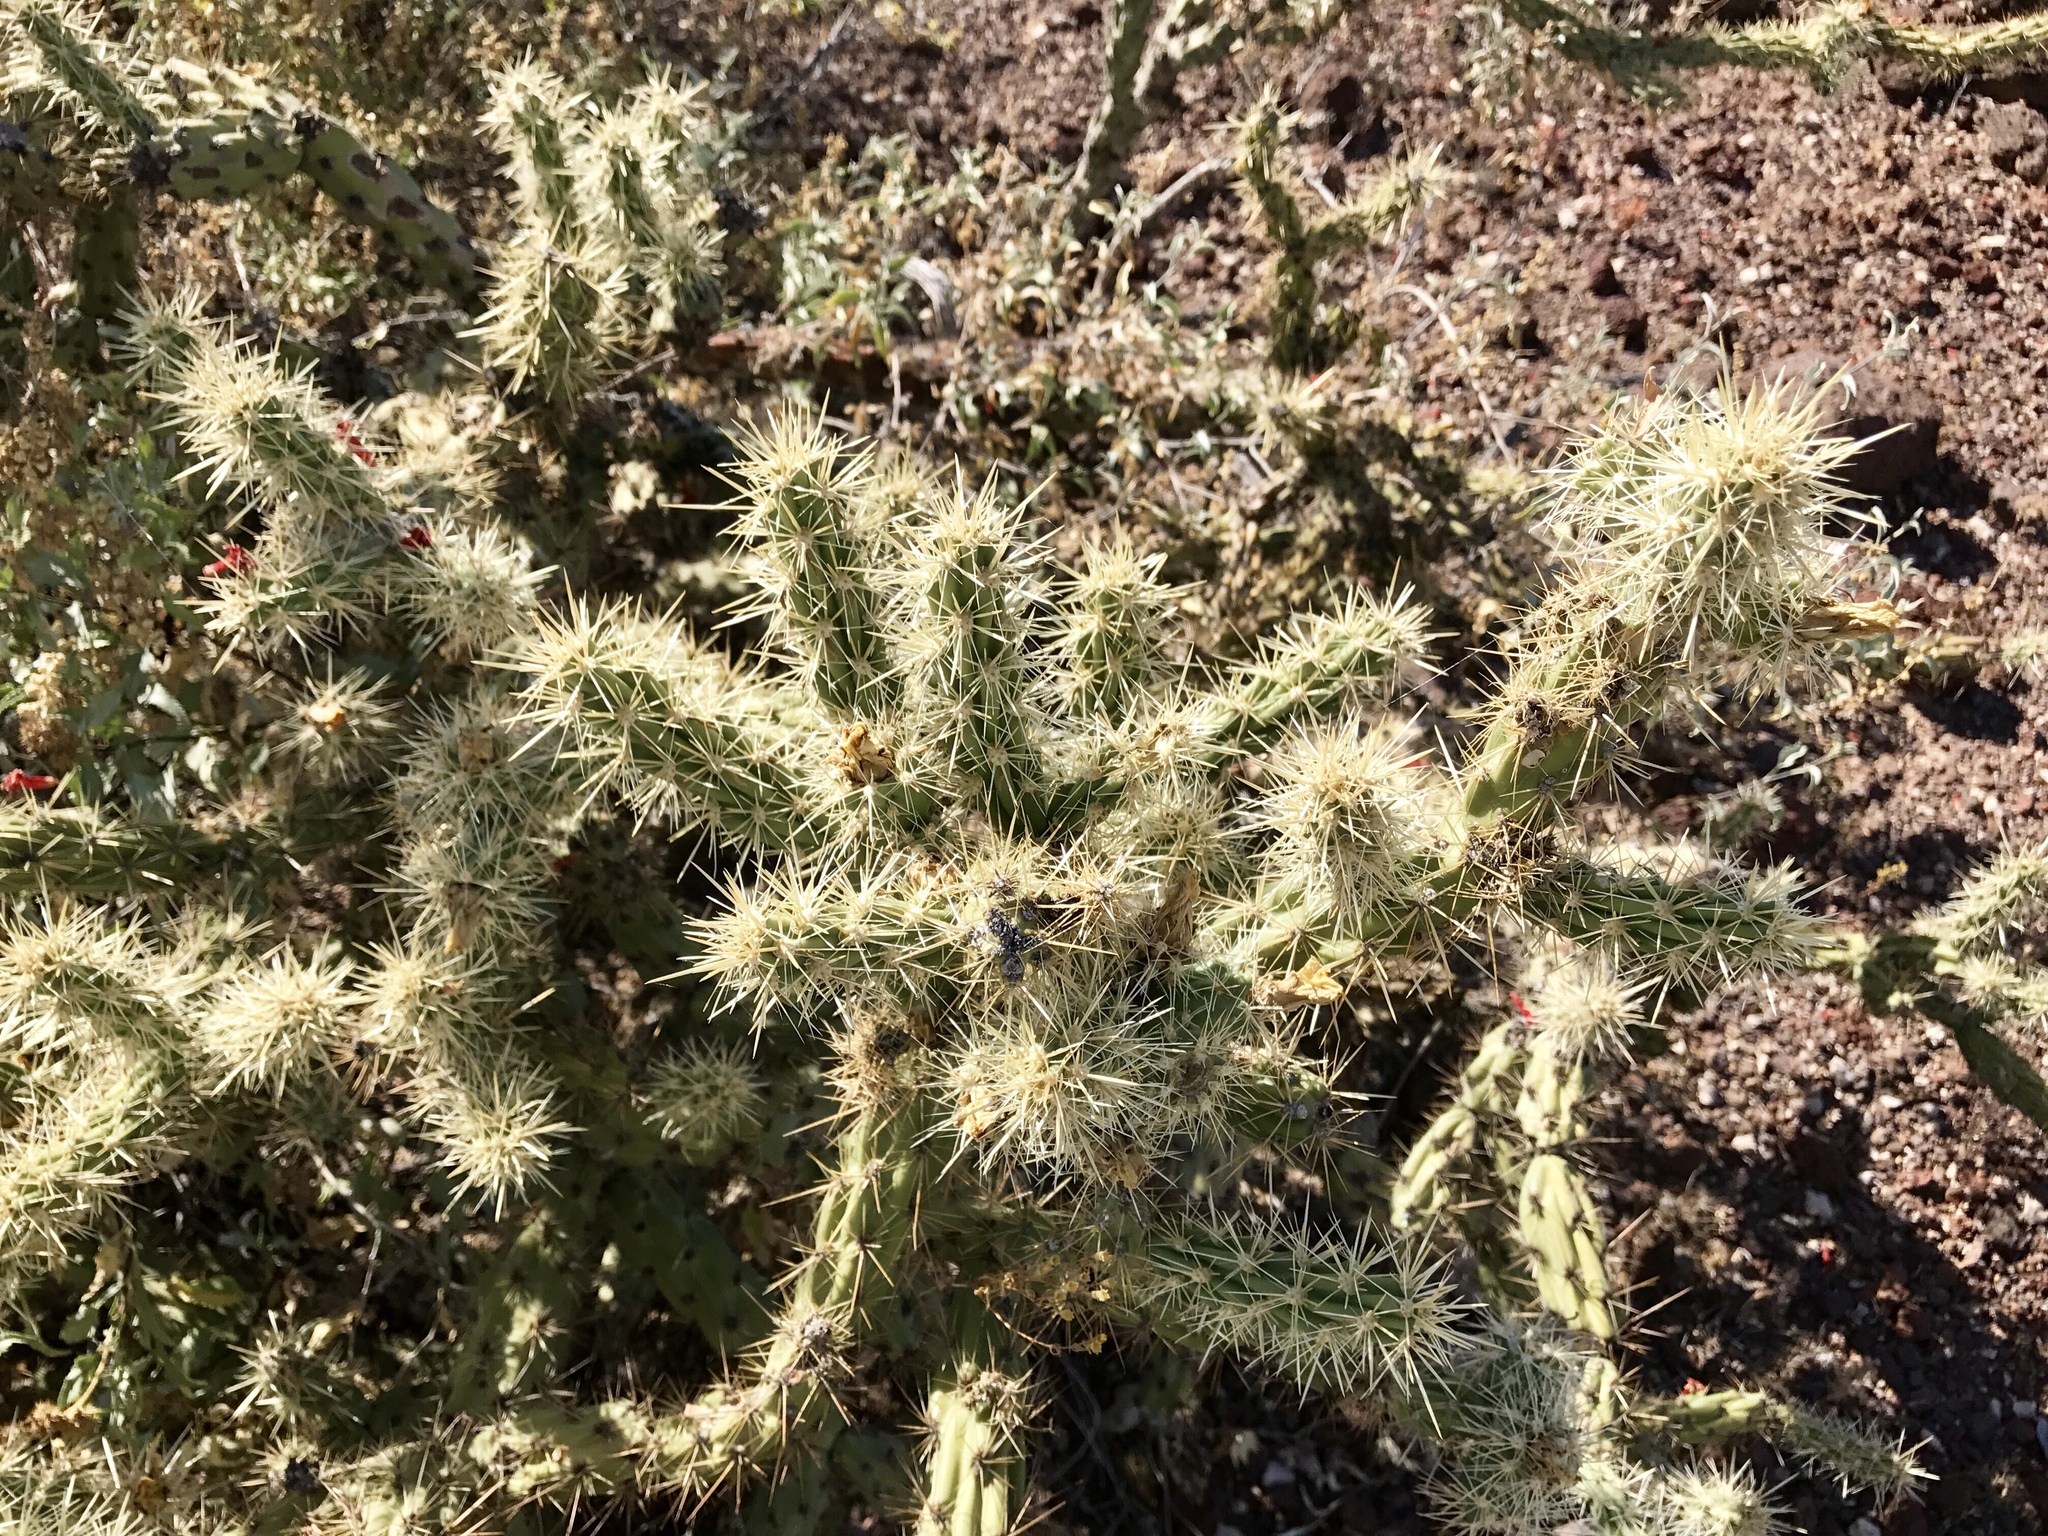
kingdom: Plantae
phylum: Tracheophyta
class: Magnoliopsida
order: Caryophyllales
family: Cactaceae
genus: Cylindropuntia
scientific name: Cylindropuntia acanthocarpa
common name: Buckhorn cholla
